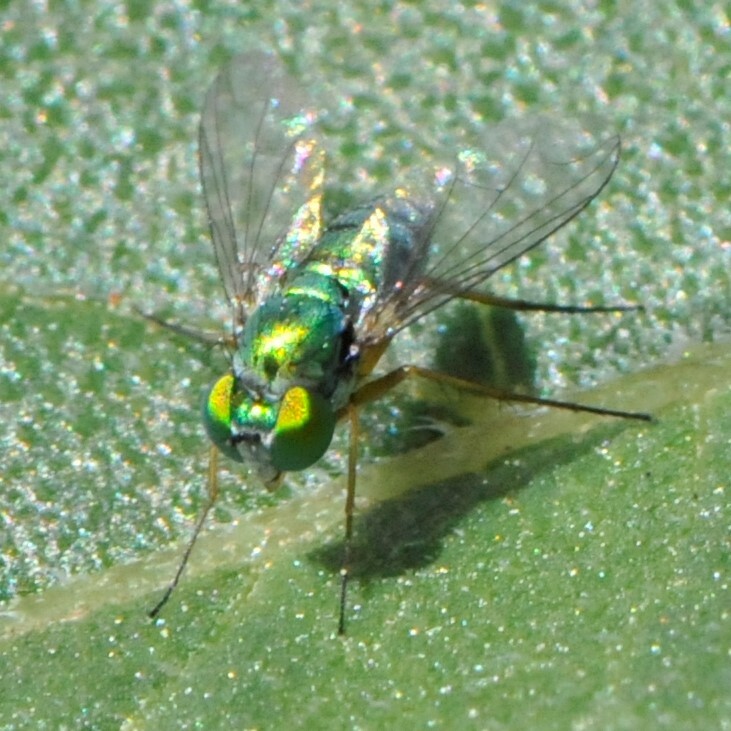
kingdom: Animalia
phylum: Arthropoda
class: Insecta
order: Diptera
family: Dolichopodidae
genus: Condylostylus
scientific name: Condylostylus
